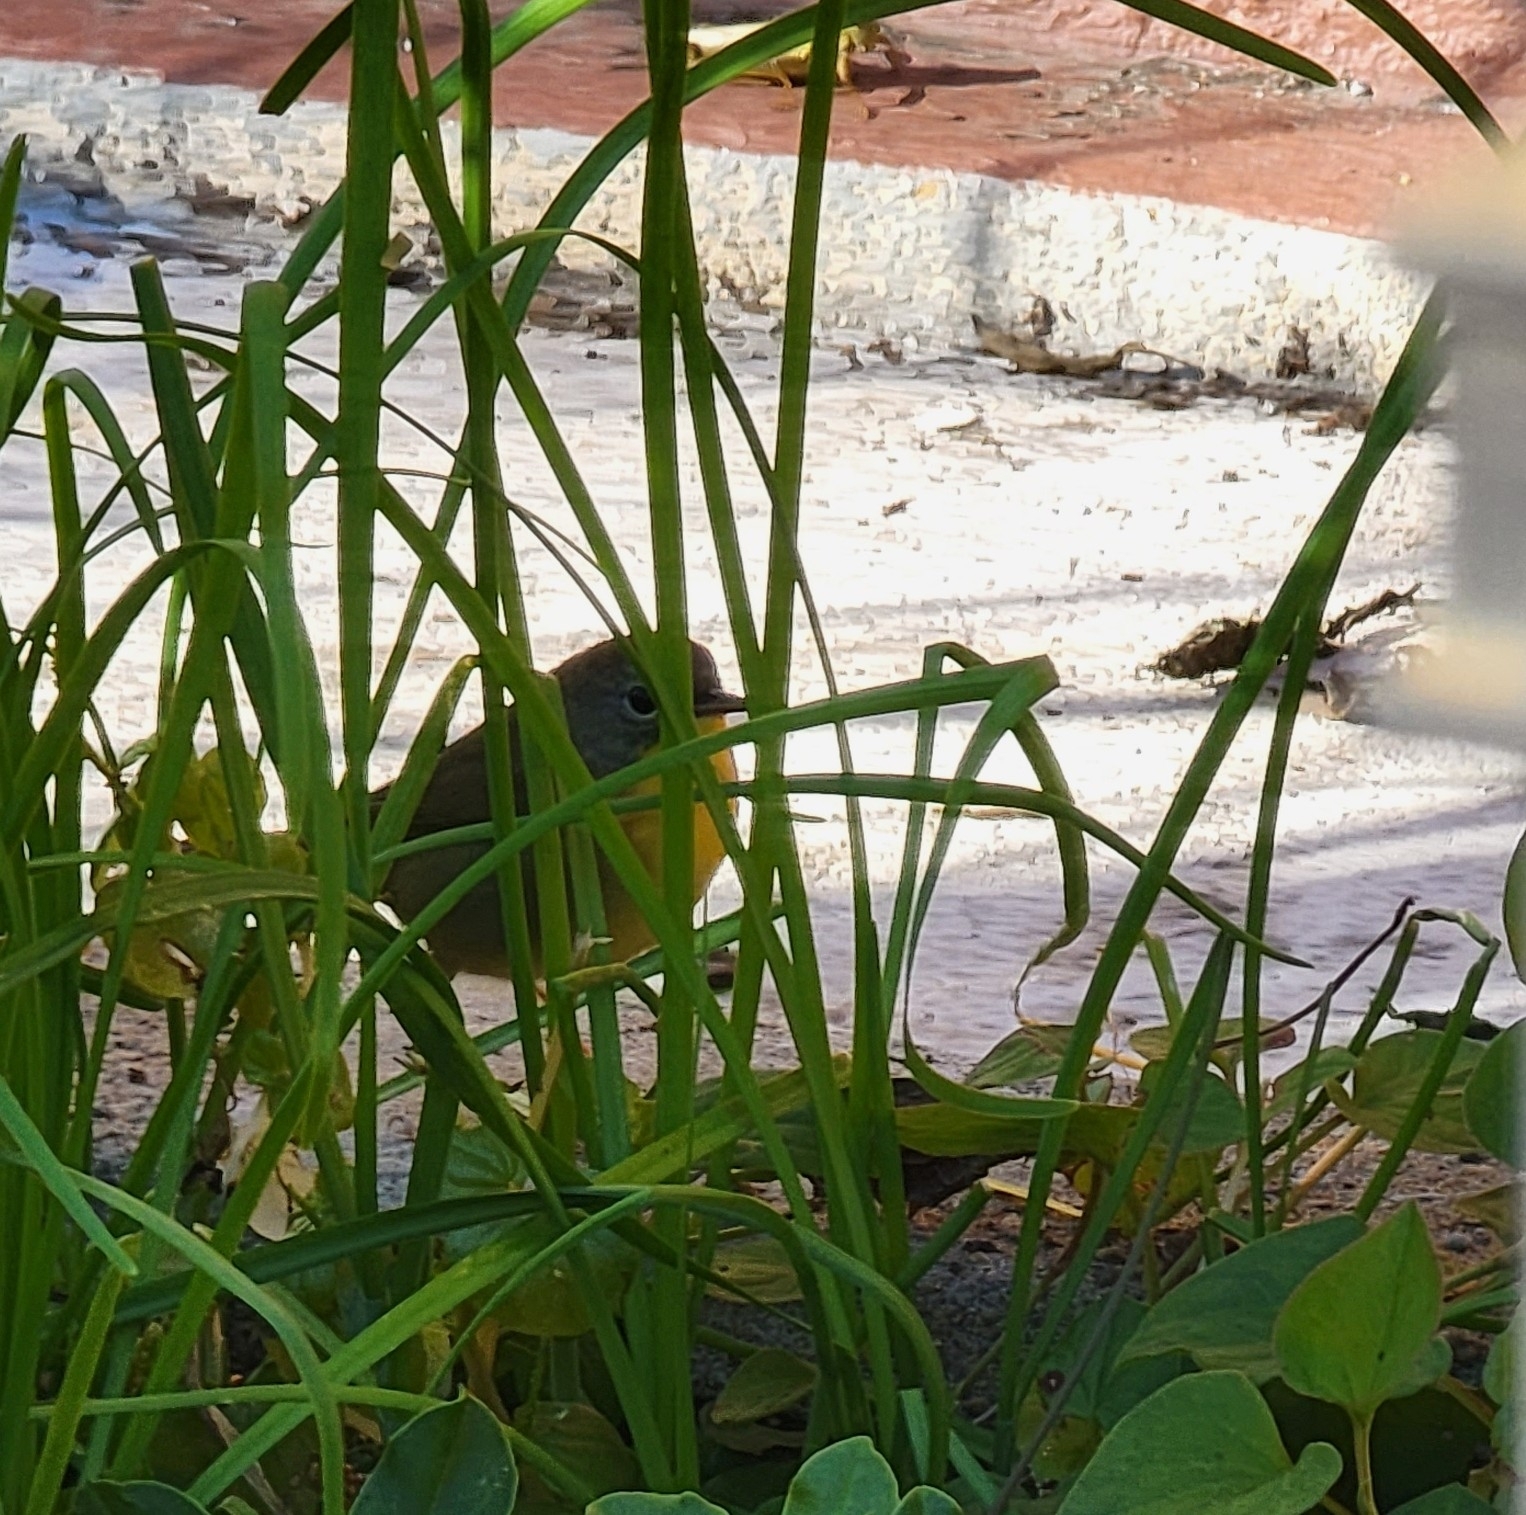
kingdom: Animalia
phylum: Chordata
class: Aves
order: Passeriformes
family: Parulidae
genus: Geothlypis
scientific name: Geothlypis trichas
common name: Common yellowthroat
